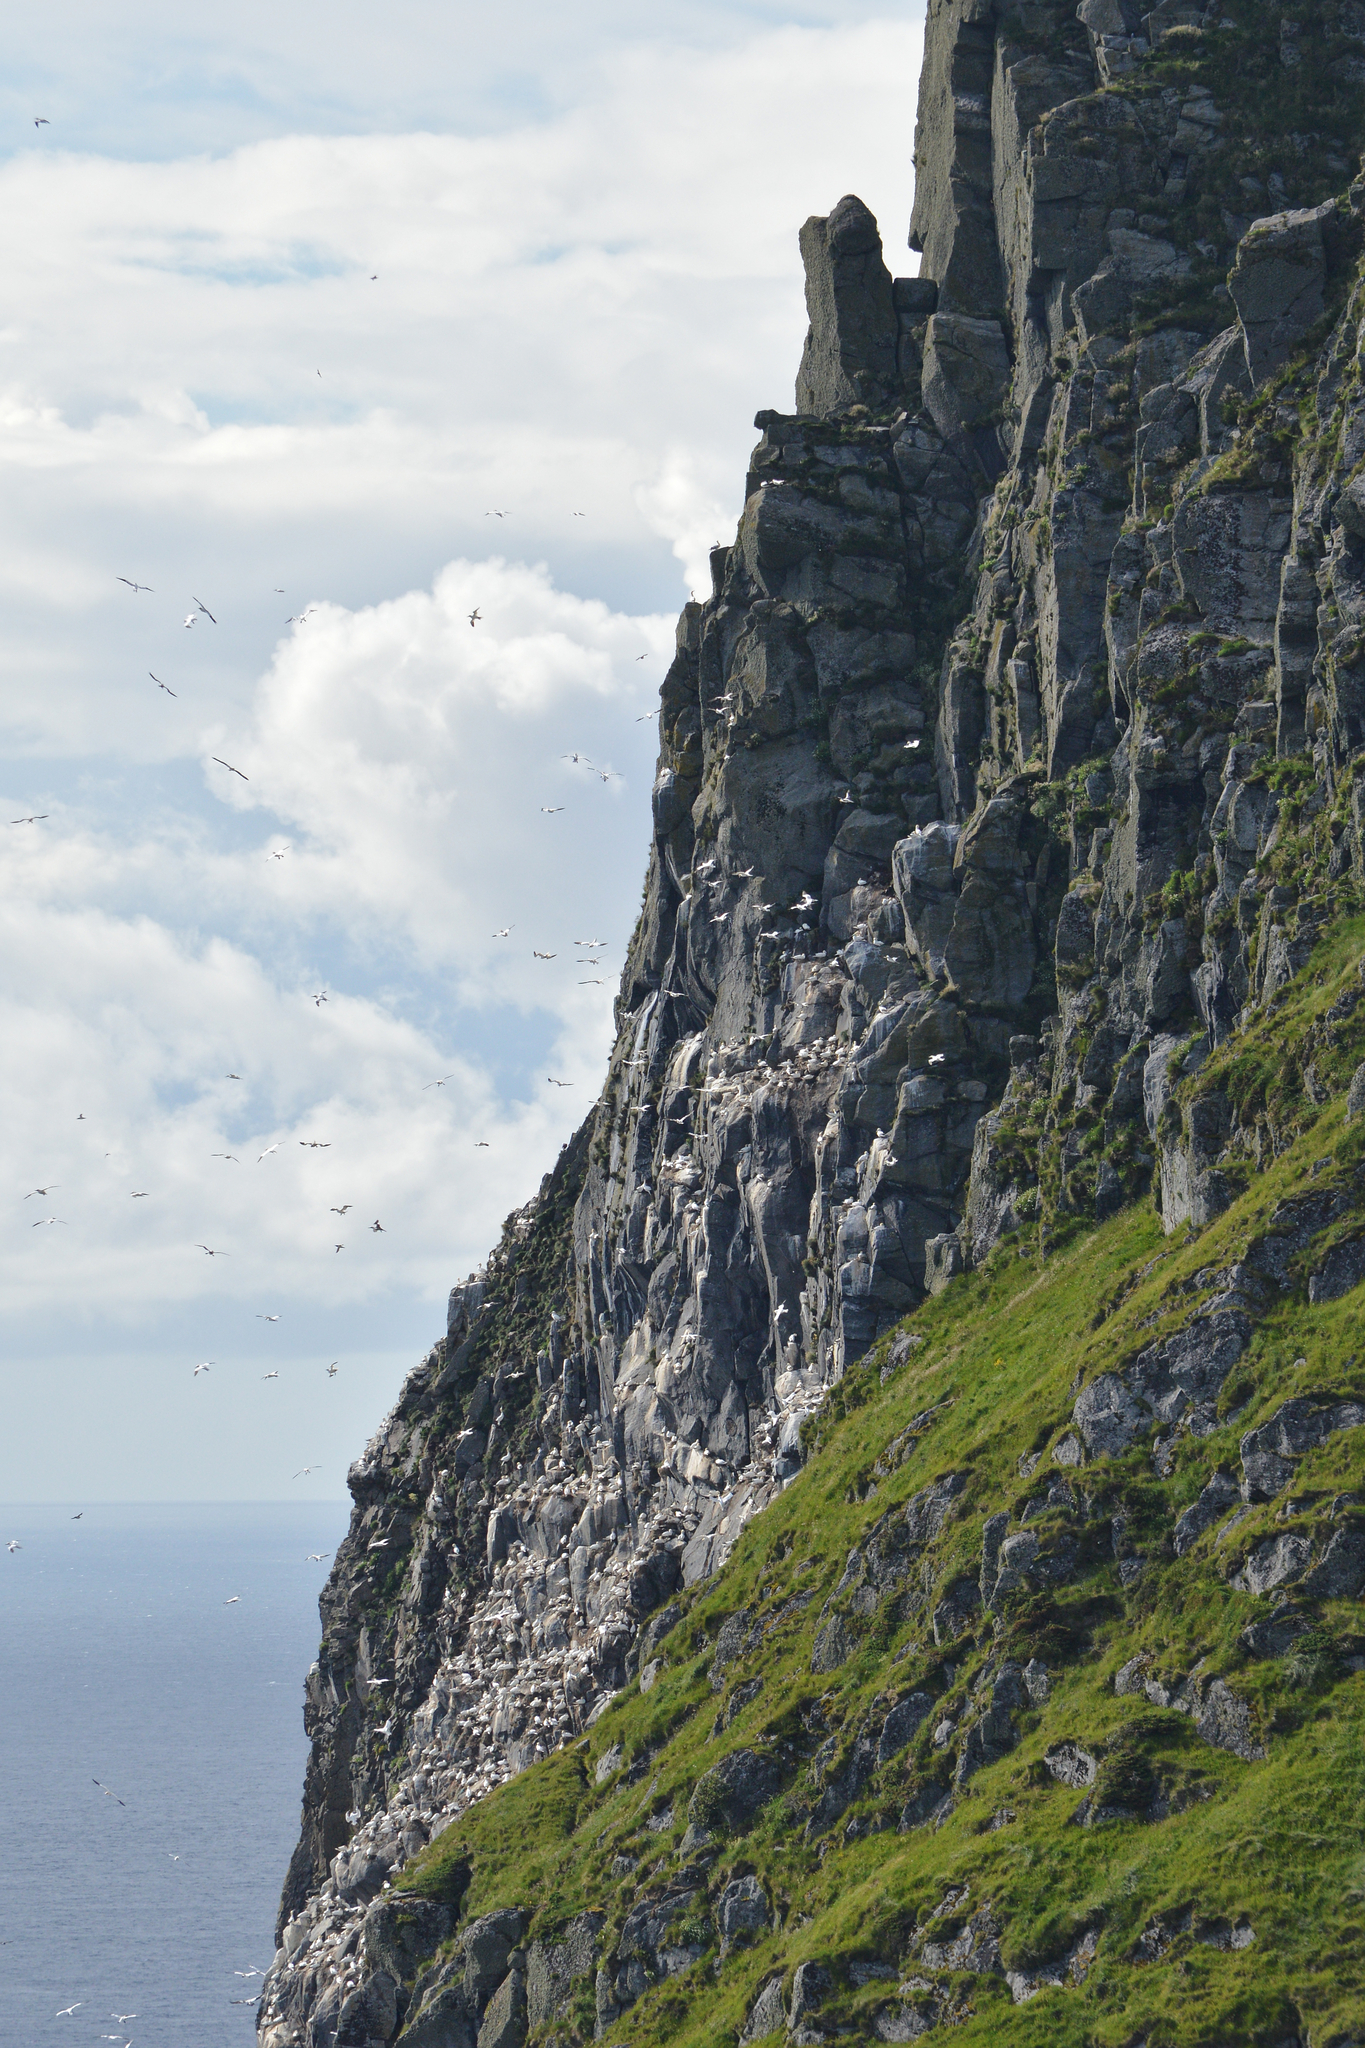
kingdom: Animalia
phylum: Chordata
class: Aves
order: Suliformes
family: Sulidae
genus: Morus
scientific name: Morus bassanus
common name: Northern gannet
